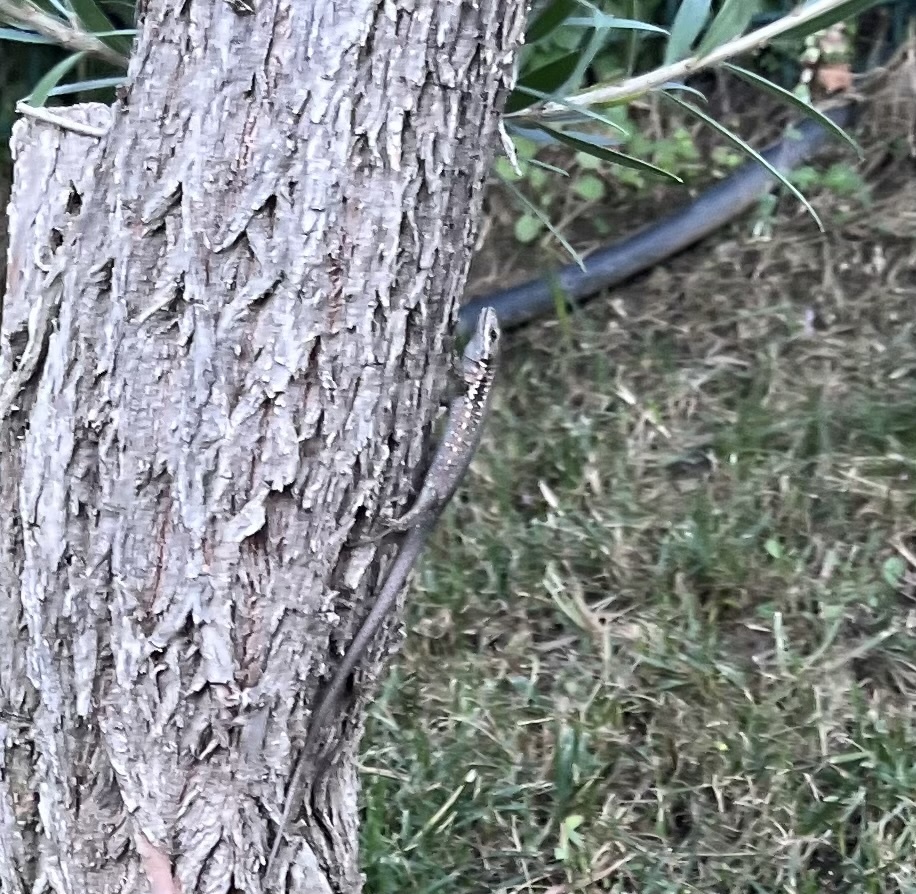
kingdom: Animalia
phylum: Chordata
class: Squamata
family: Lacertidae
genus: Phoenicolacerta
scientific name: Phoenicolacerta laevis
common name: Lebanon lizard
